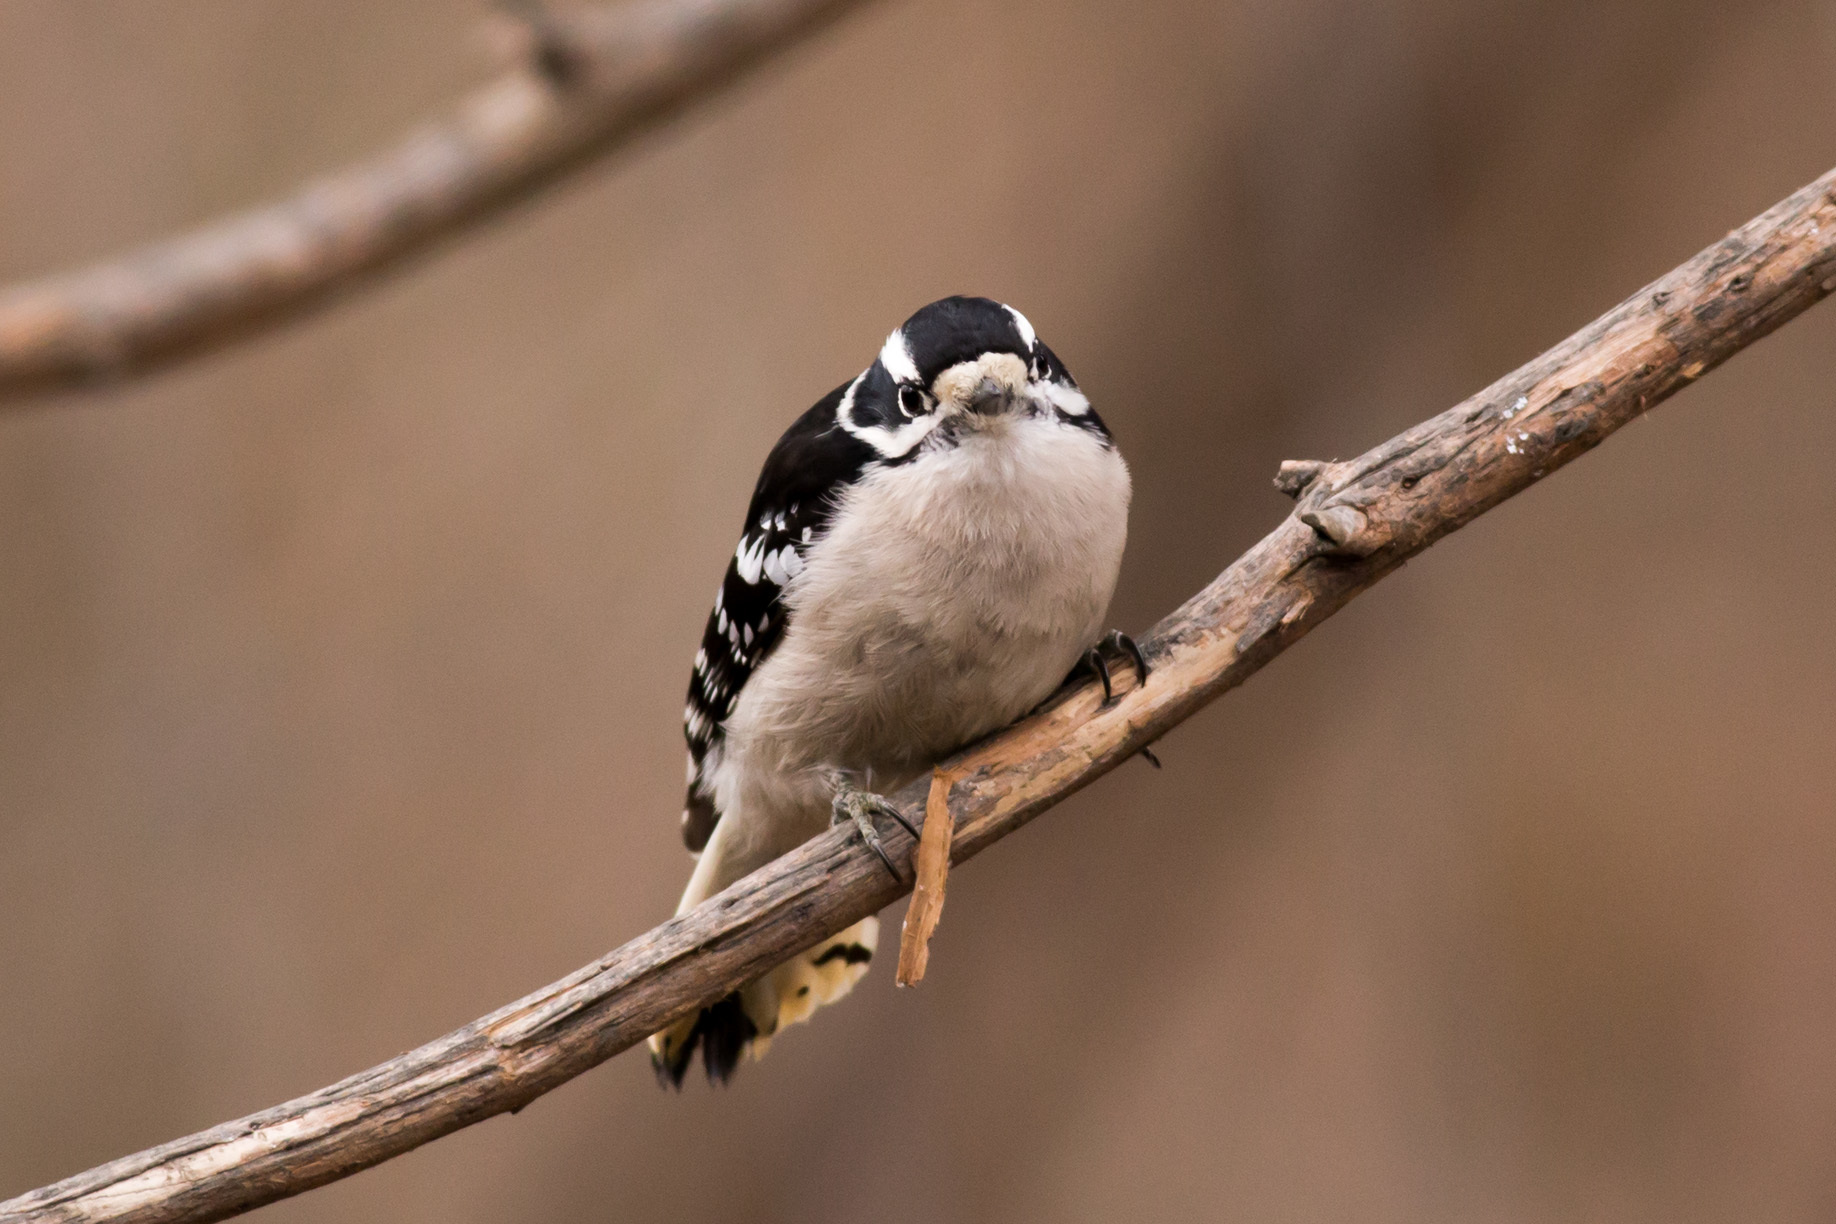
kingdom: Animalia
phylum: Chordata
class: Aves
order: Piciformes
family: Picidae
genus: Dryobates
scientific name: Dryobates pubescens
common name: Downy woodpecker
